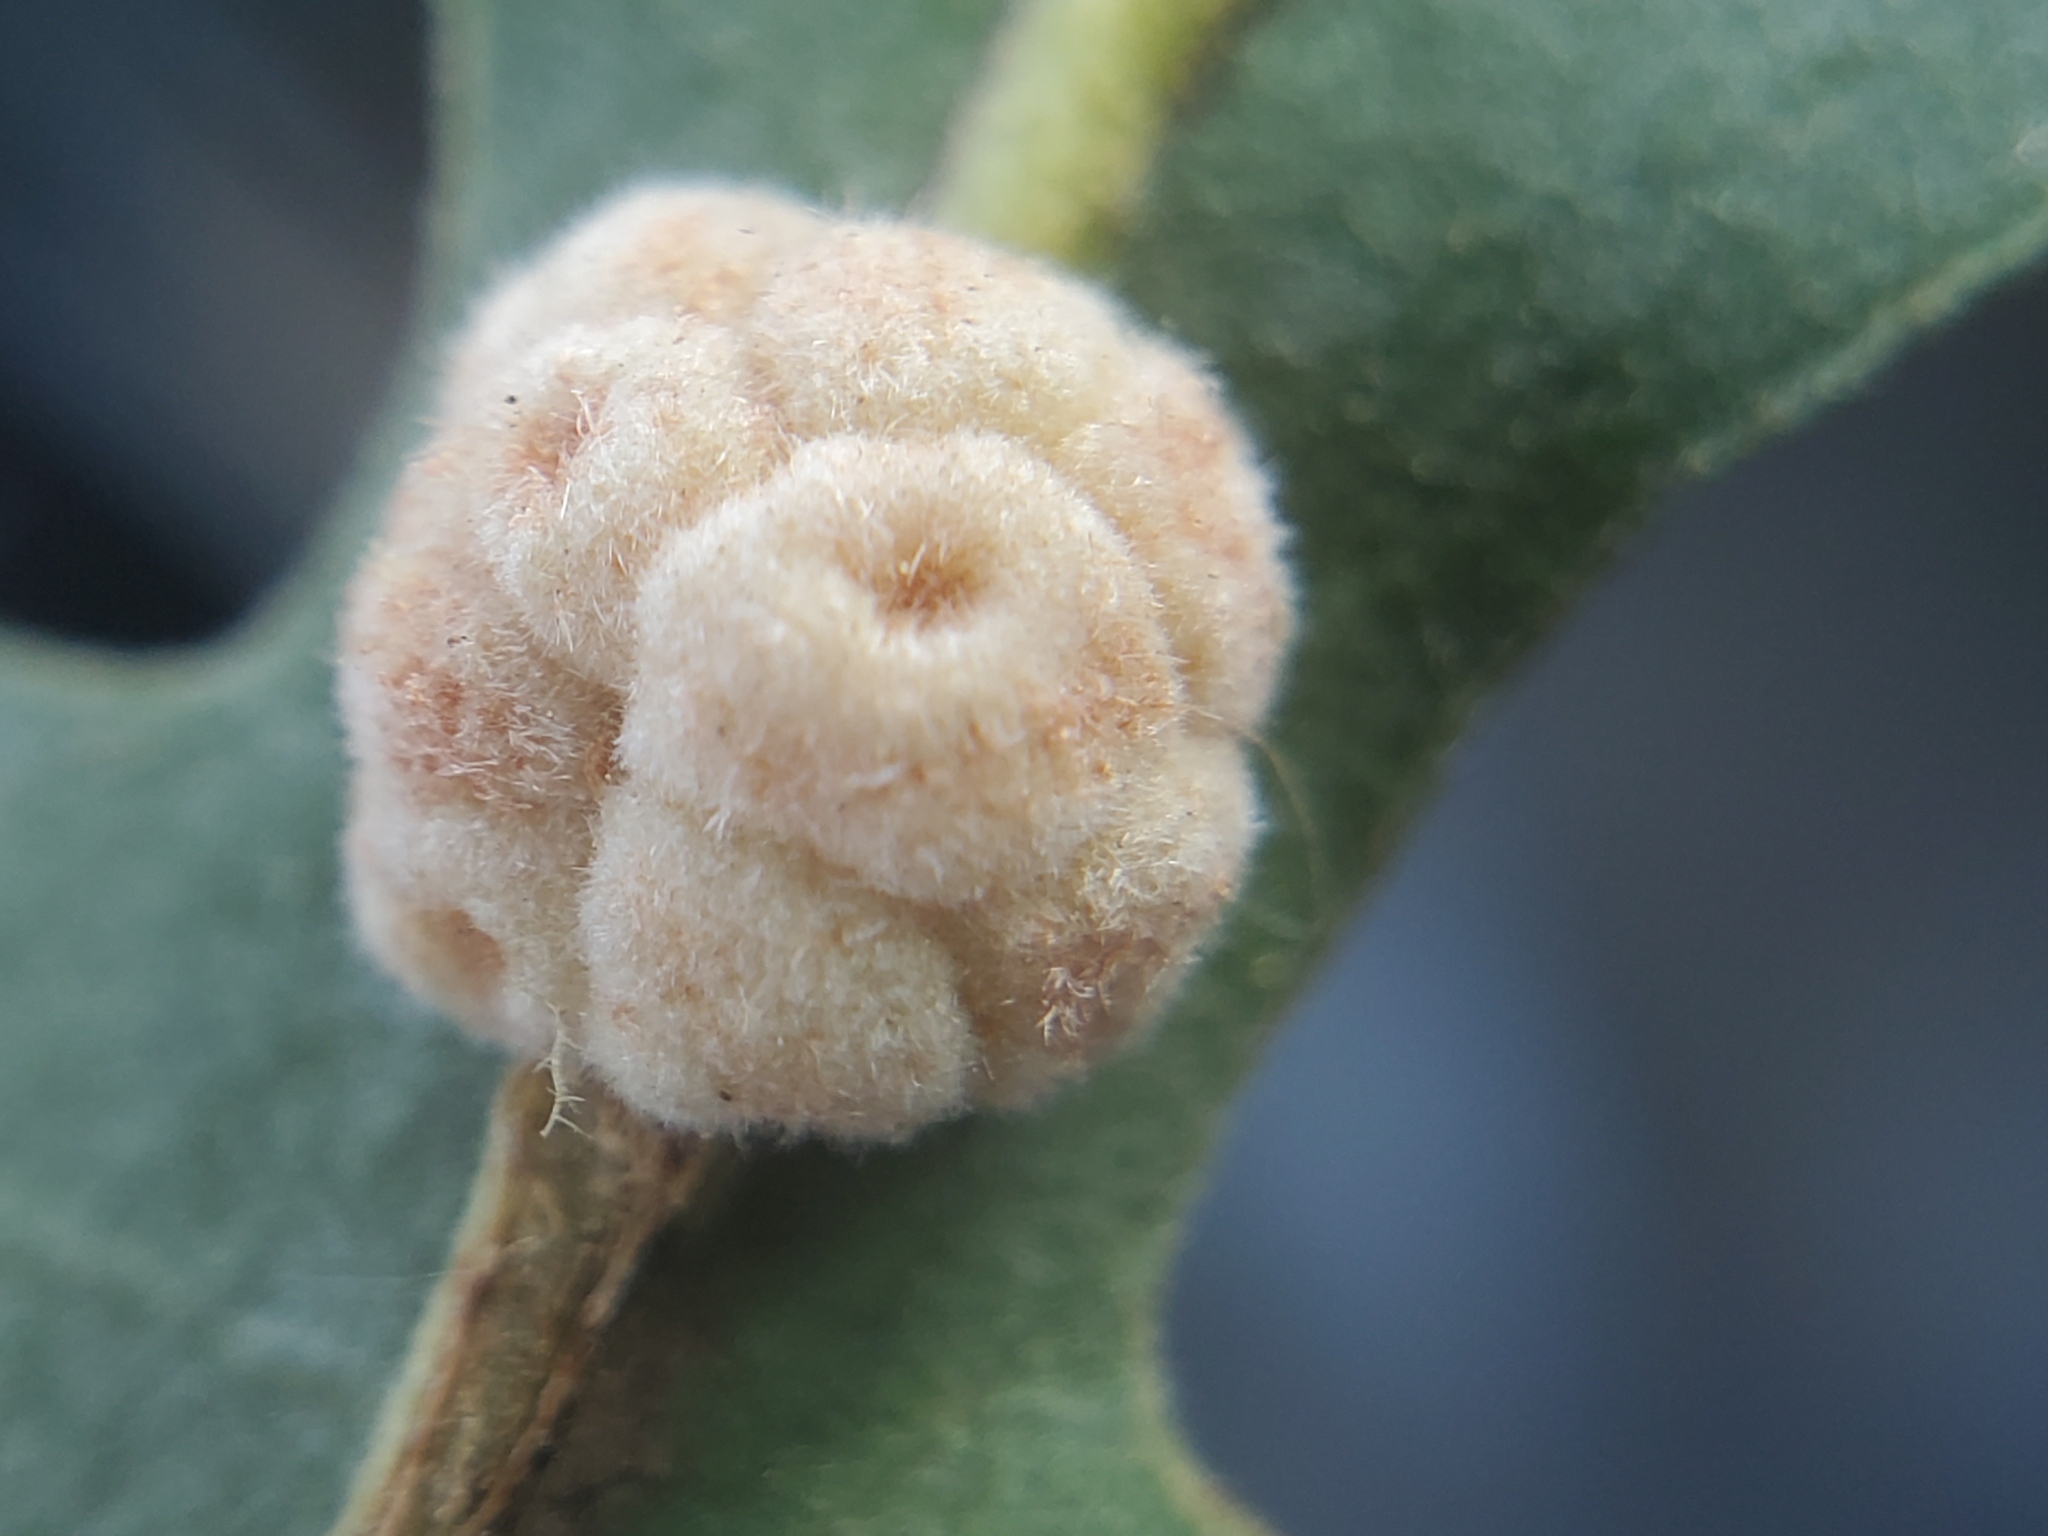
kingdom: Animalia
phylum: Arthropoda
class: Insecta
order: Hymenoptera
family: Cynipidae
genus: Andricus
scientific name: Andricus
